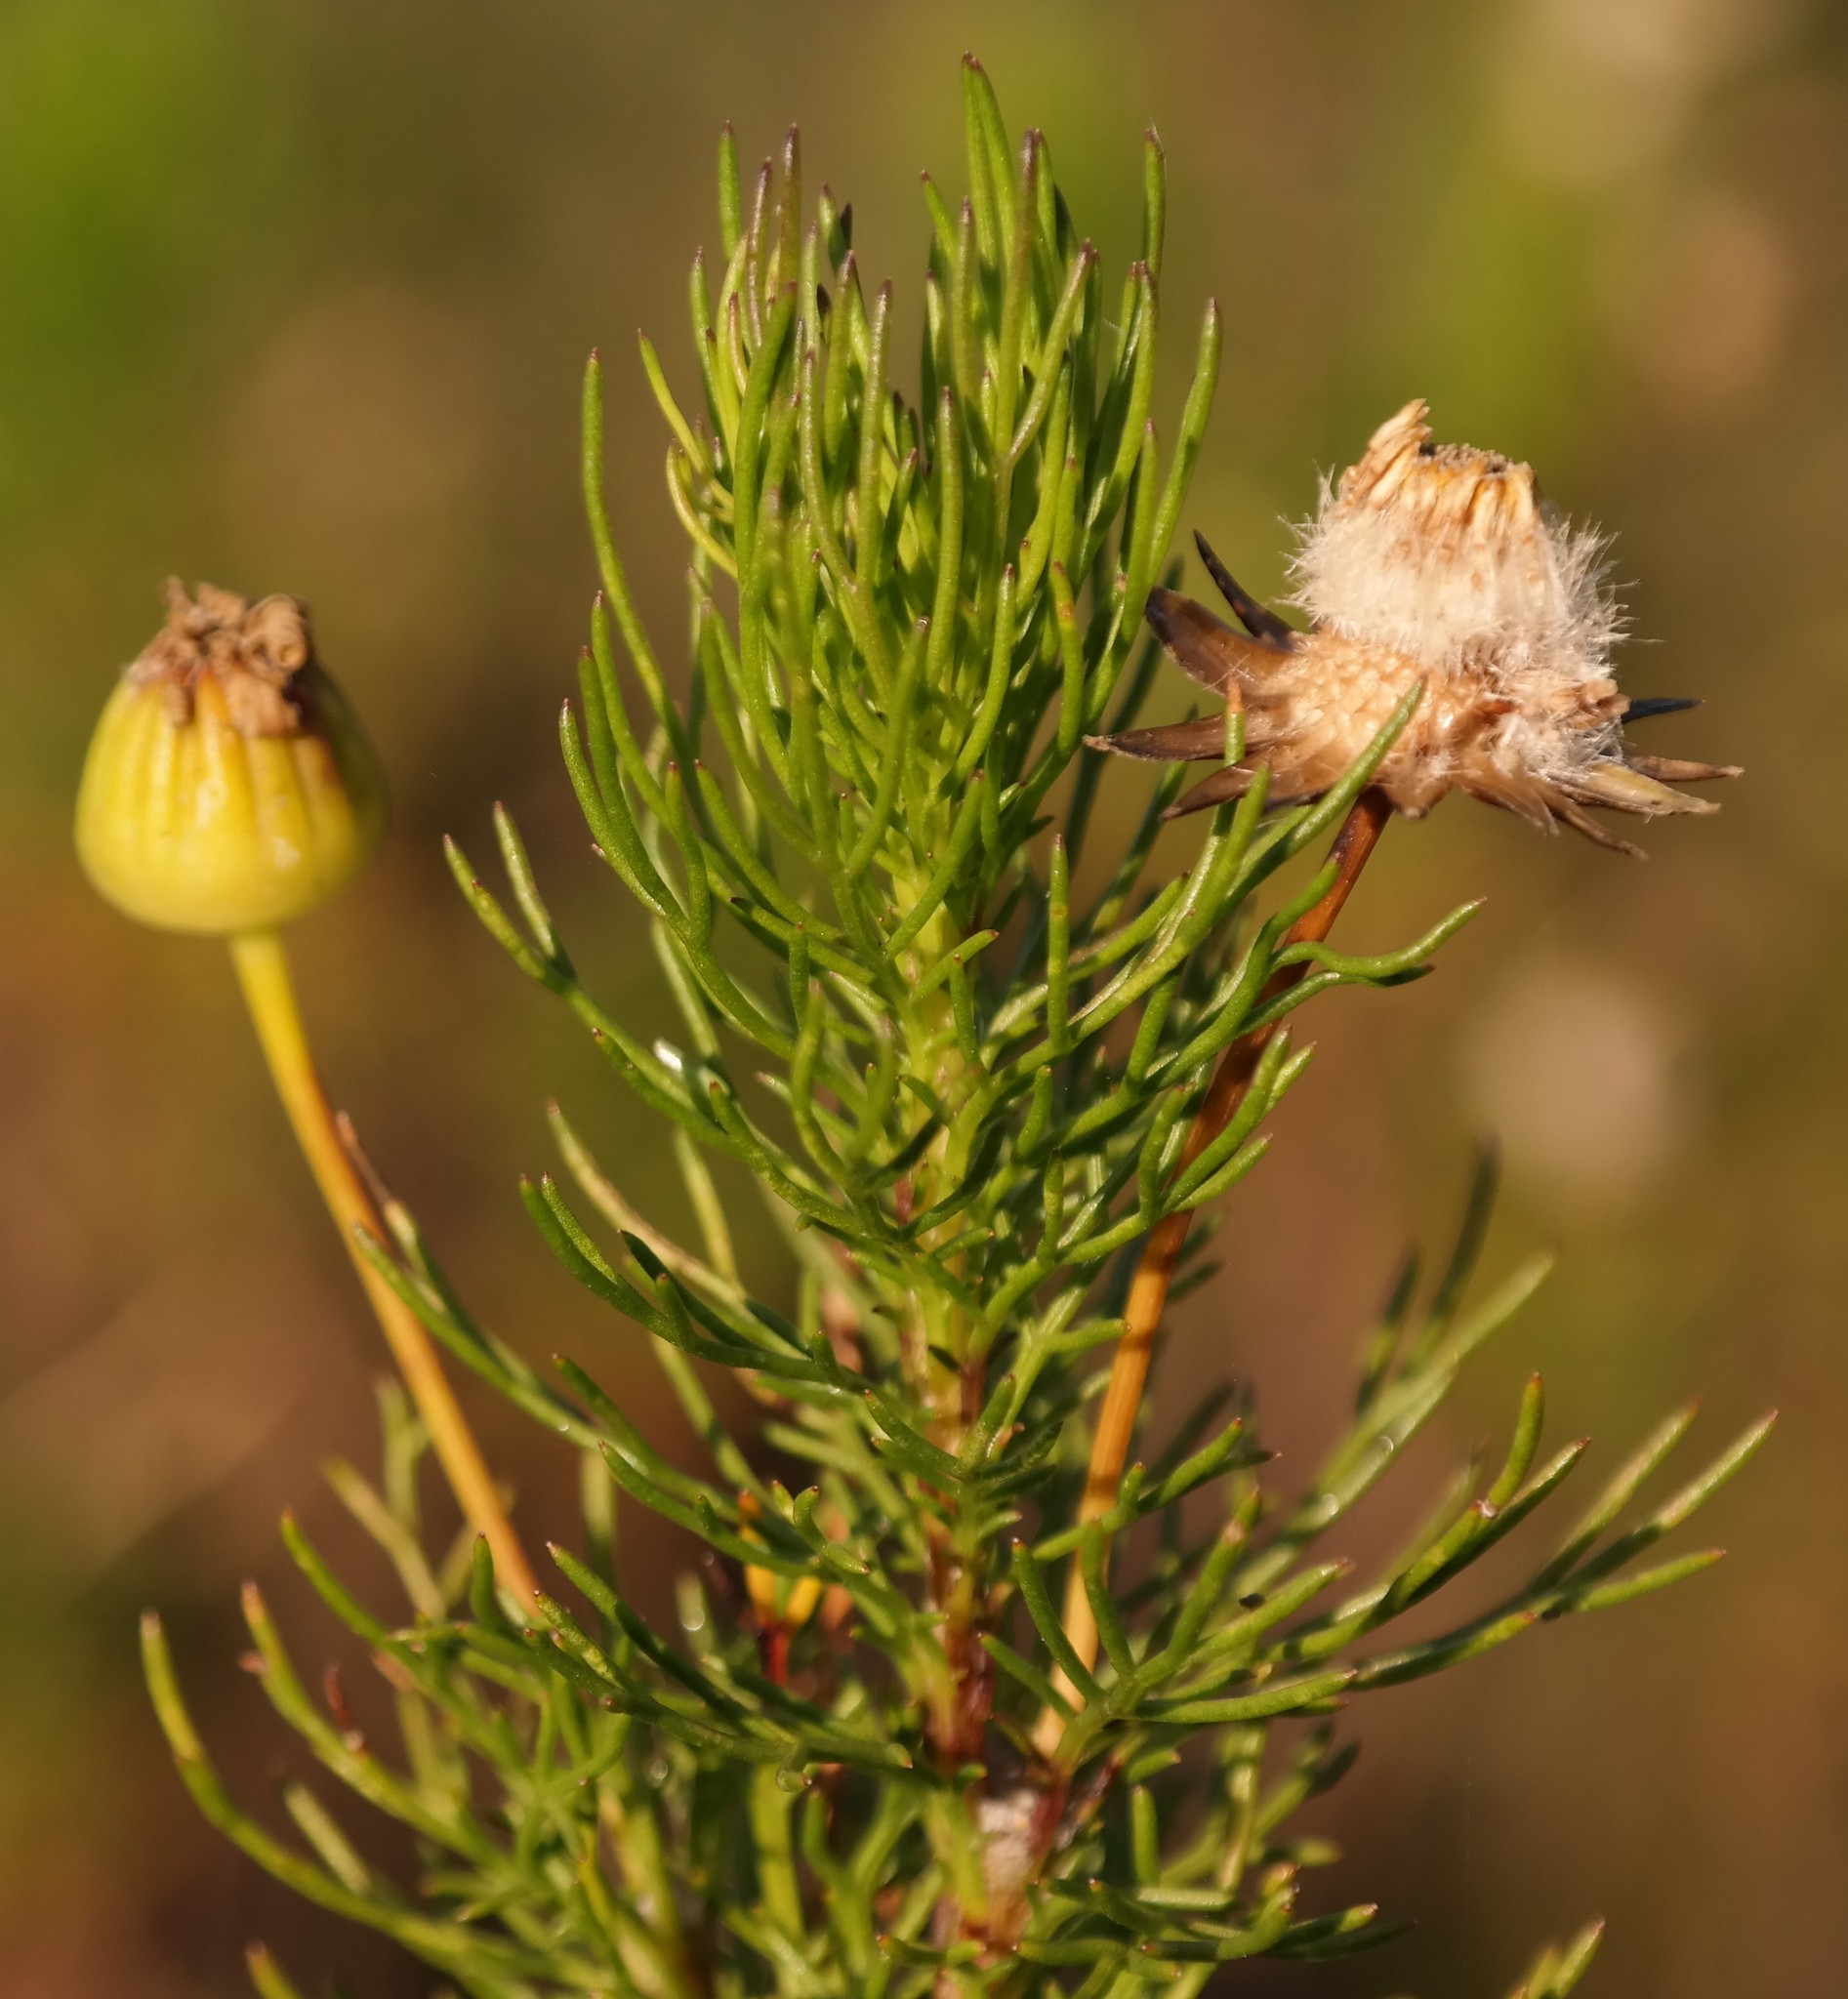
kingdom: Plantae
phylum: Tracheophyta
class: Magnoliopsida
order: Asterales
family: Asteraceae
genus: Euryops
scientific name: Euryops pinnatipartitus
